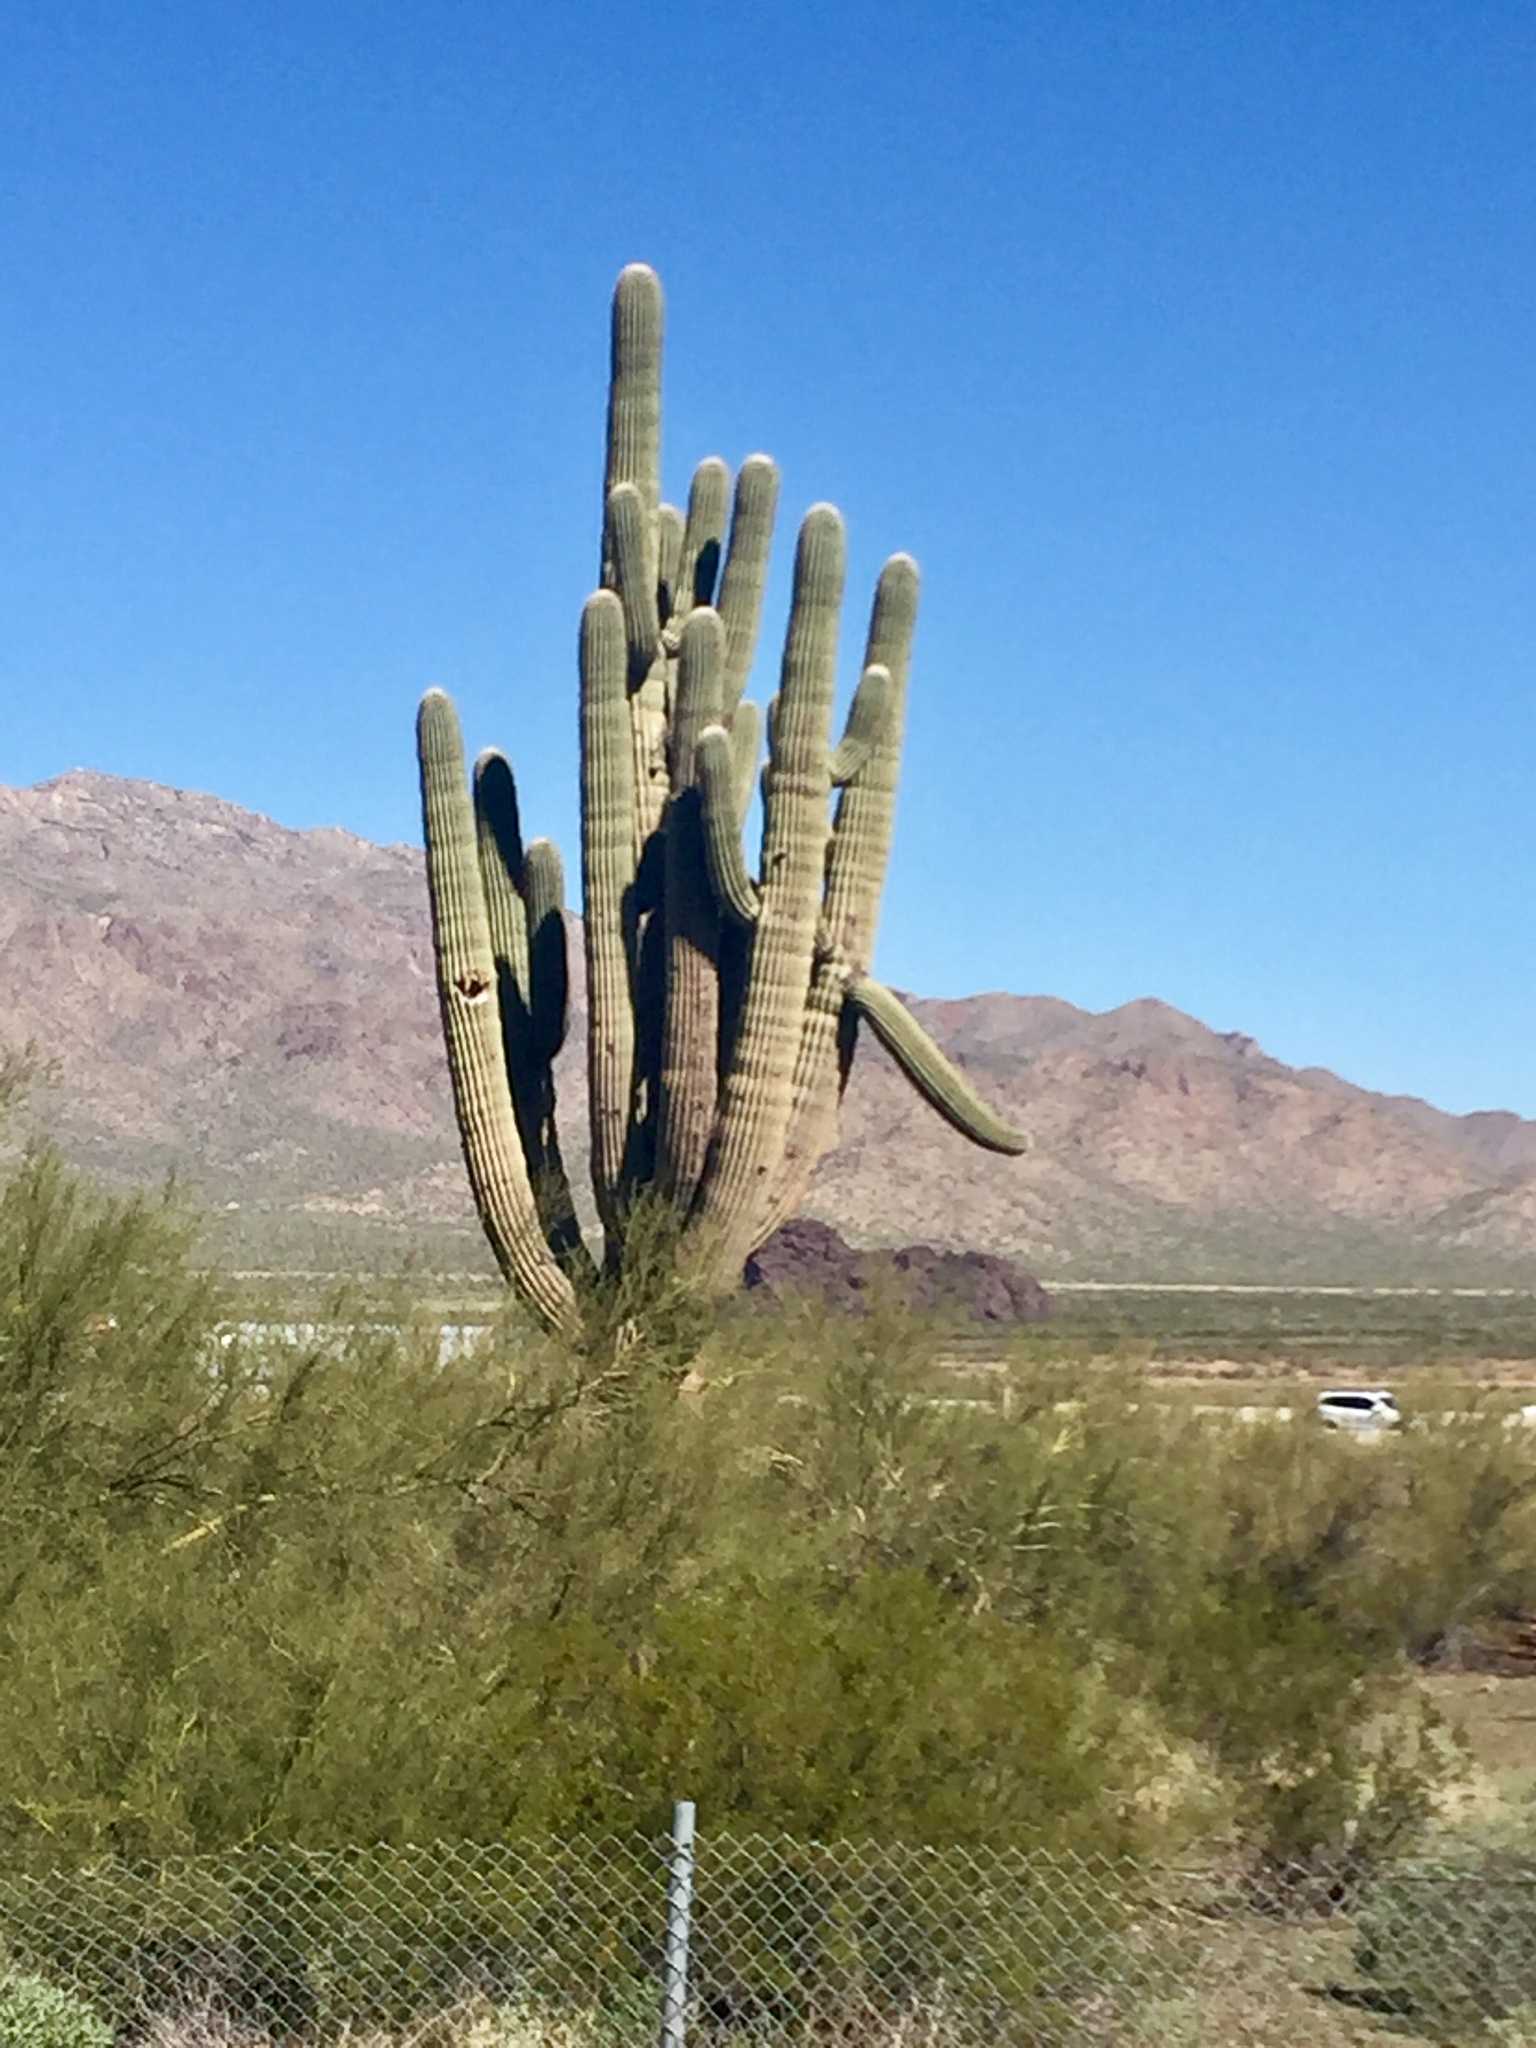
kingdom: Plantae
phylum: Tracheophyta
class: Magnoliopsida
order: Caryophyllales
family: Cactaceae
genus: Carnegiea
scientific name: Carnegiea gigantea
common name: Saguaro
